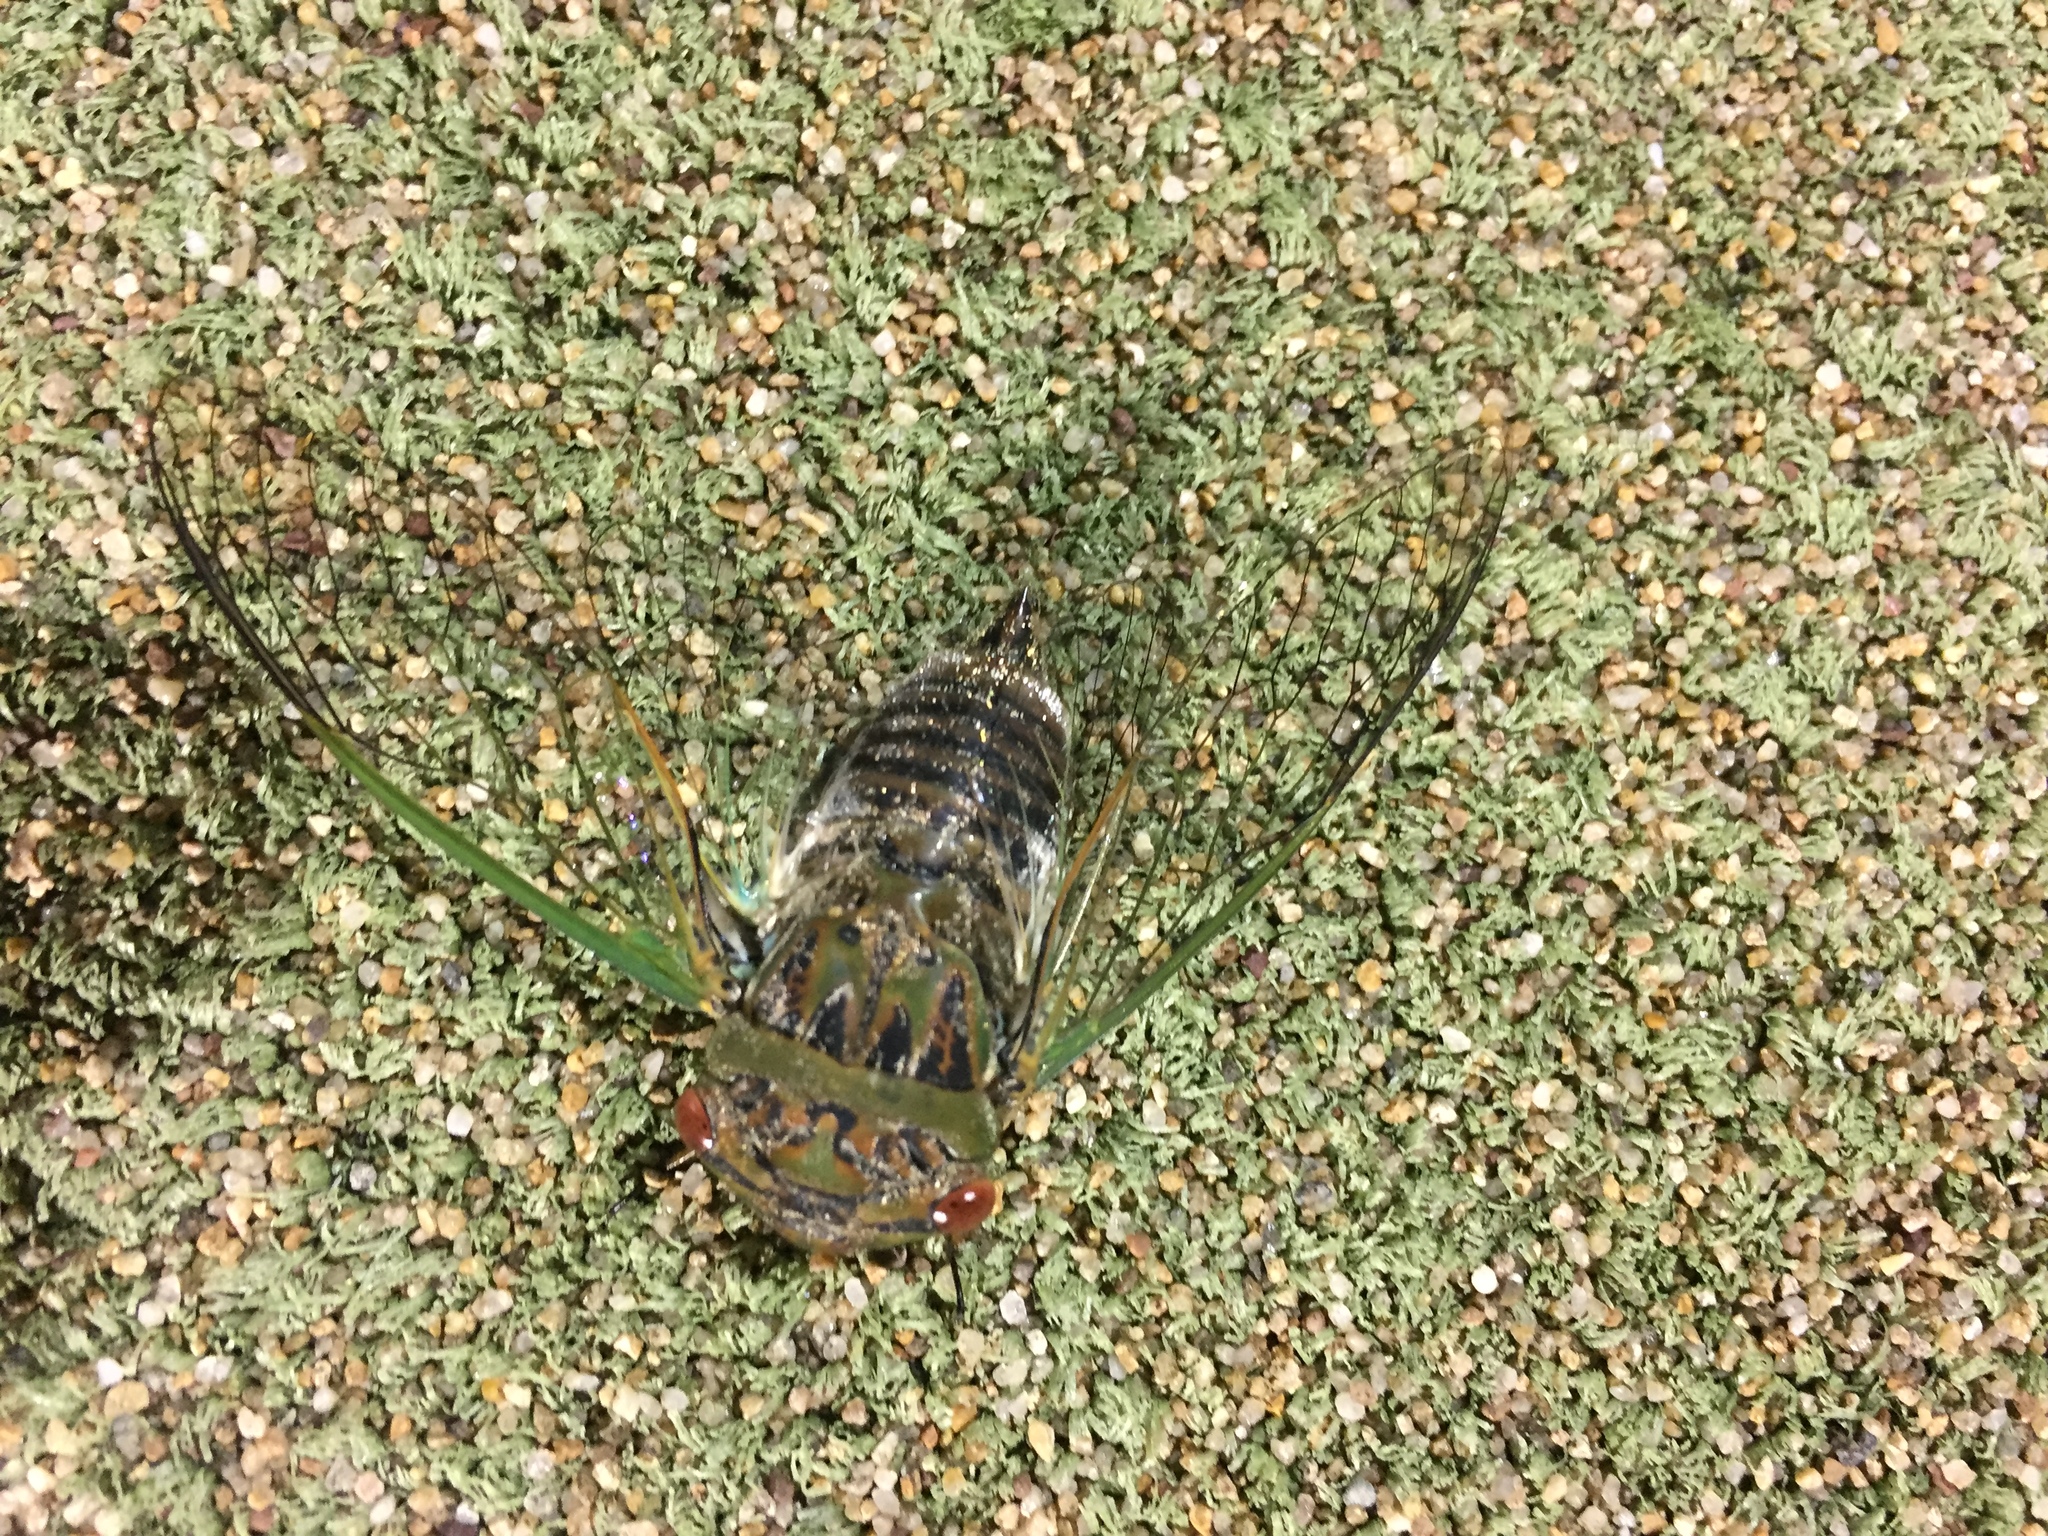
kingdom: Animalia
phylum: Arthropoda
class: Insecta
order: Hemiptera
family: Cicadidae
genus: Psaltoda
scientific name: Psaltoda claripennis
